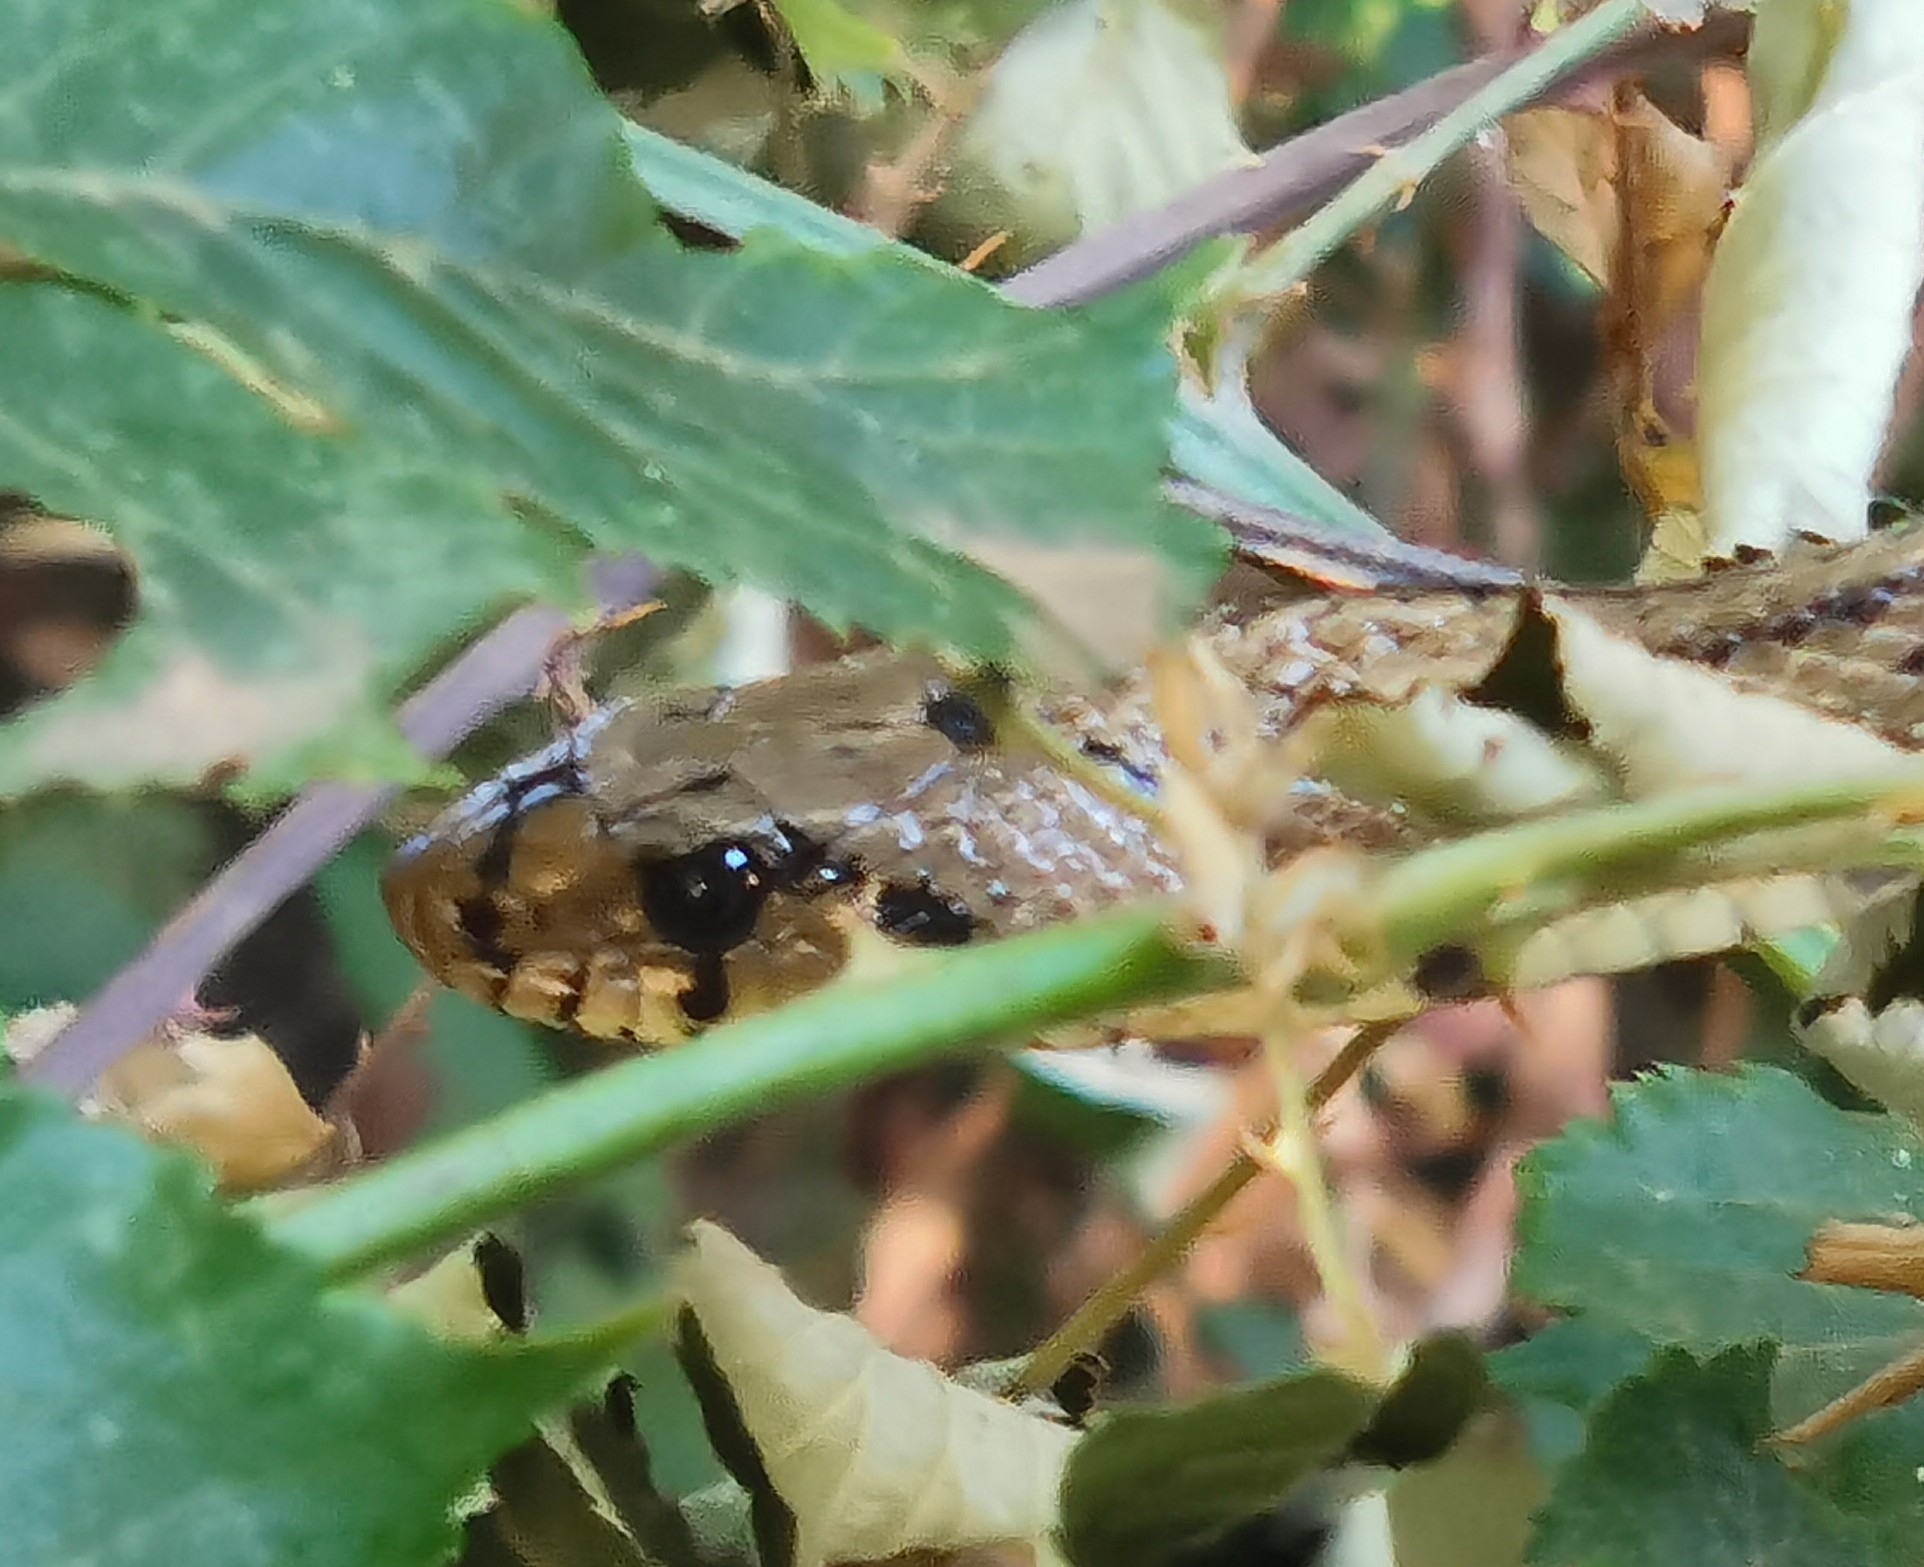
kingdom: Animalia
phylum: Chordata
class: Squamata
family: Colubridae
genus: Zamenis
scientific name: Zamenis scalaris
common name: Ladder snakes
